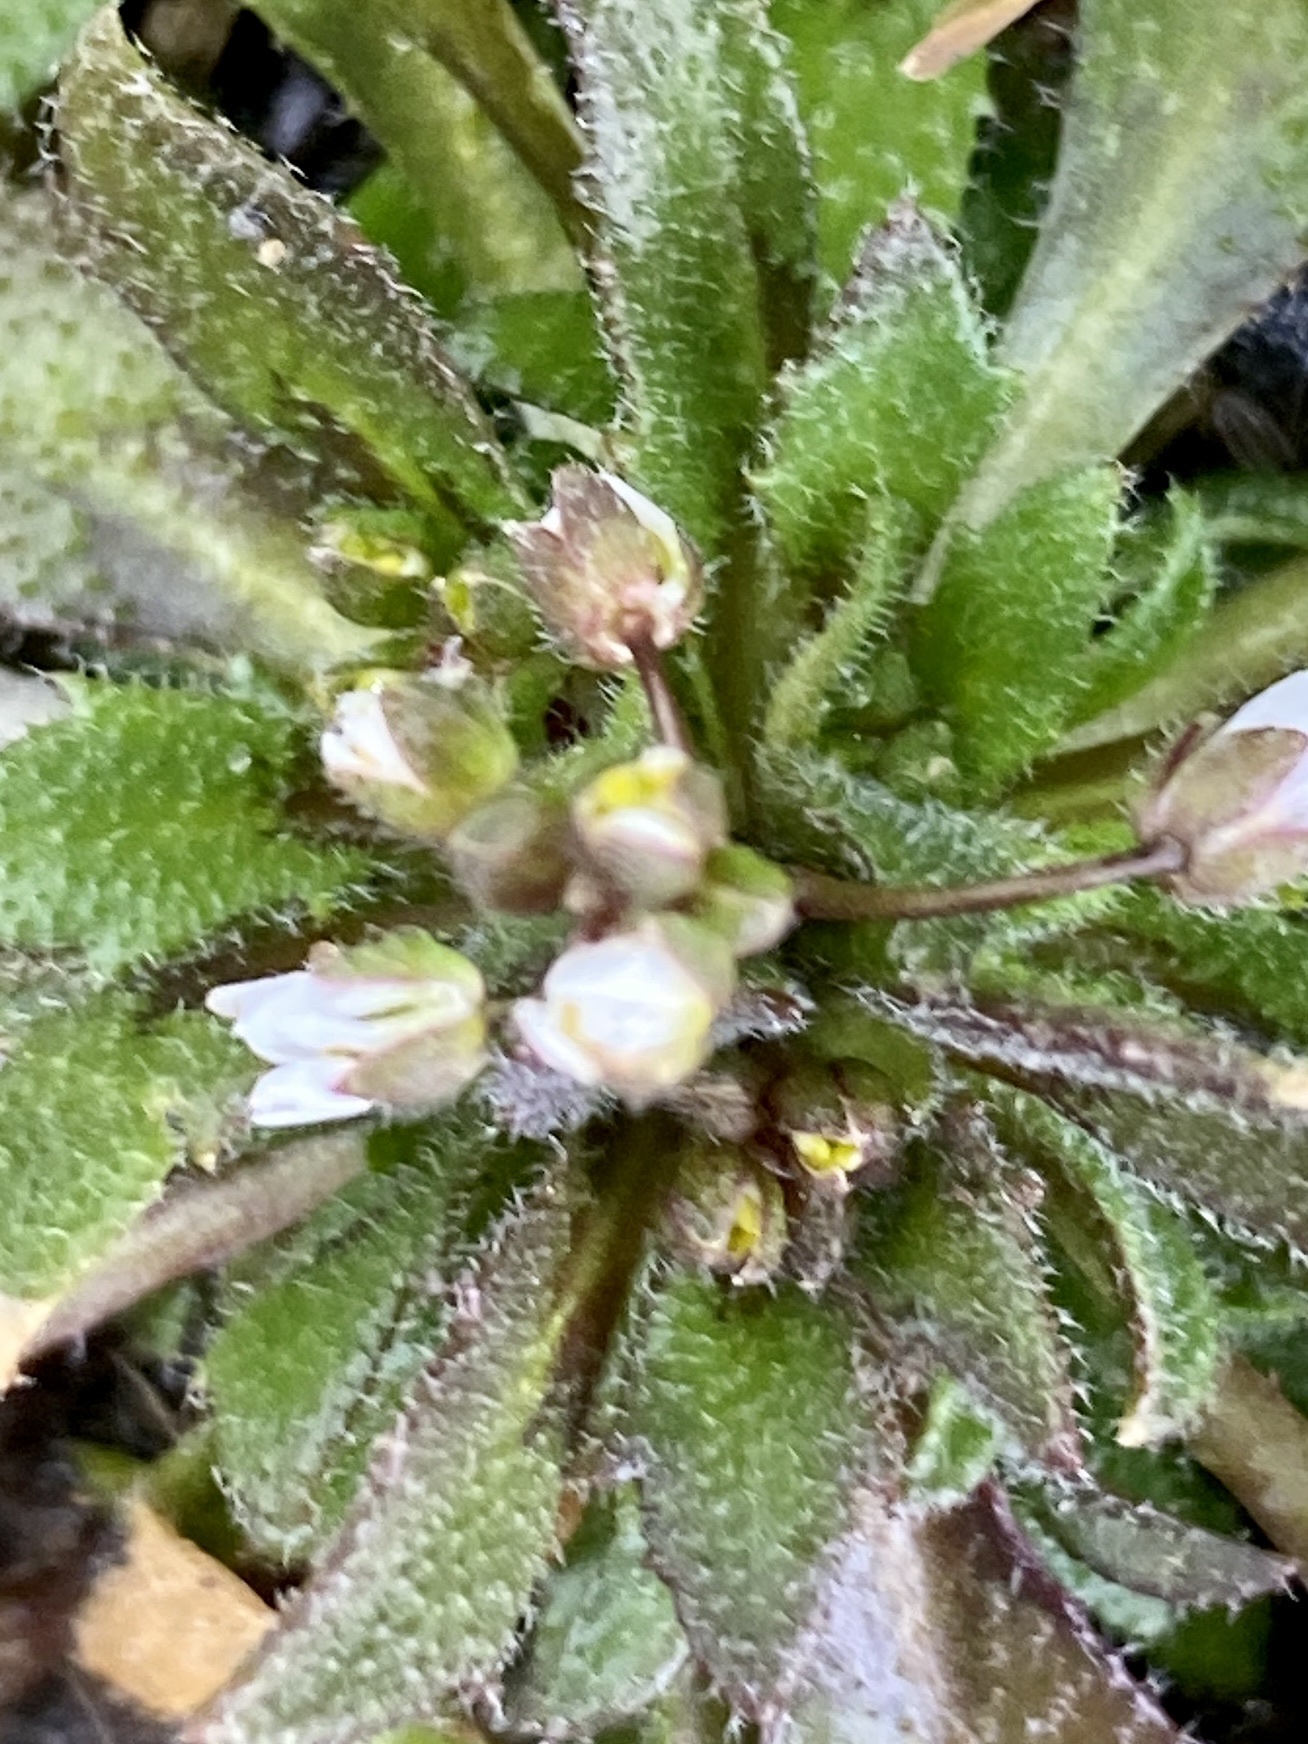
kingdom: Plantae
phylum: Tracheophyta
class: Magnoliopsida
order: Brassicales
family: Brassicaceae
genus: Draba
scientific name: Draba verna
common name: Spring draba
